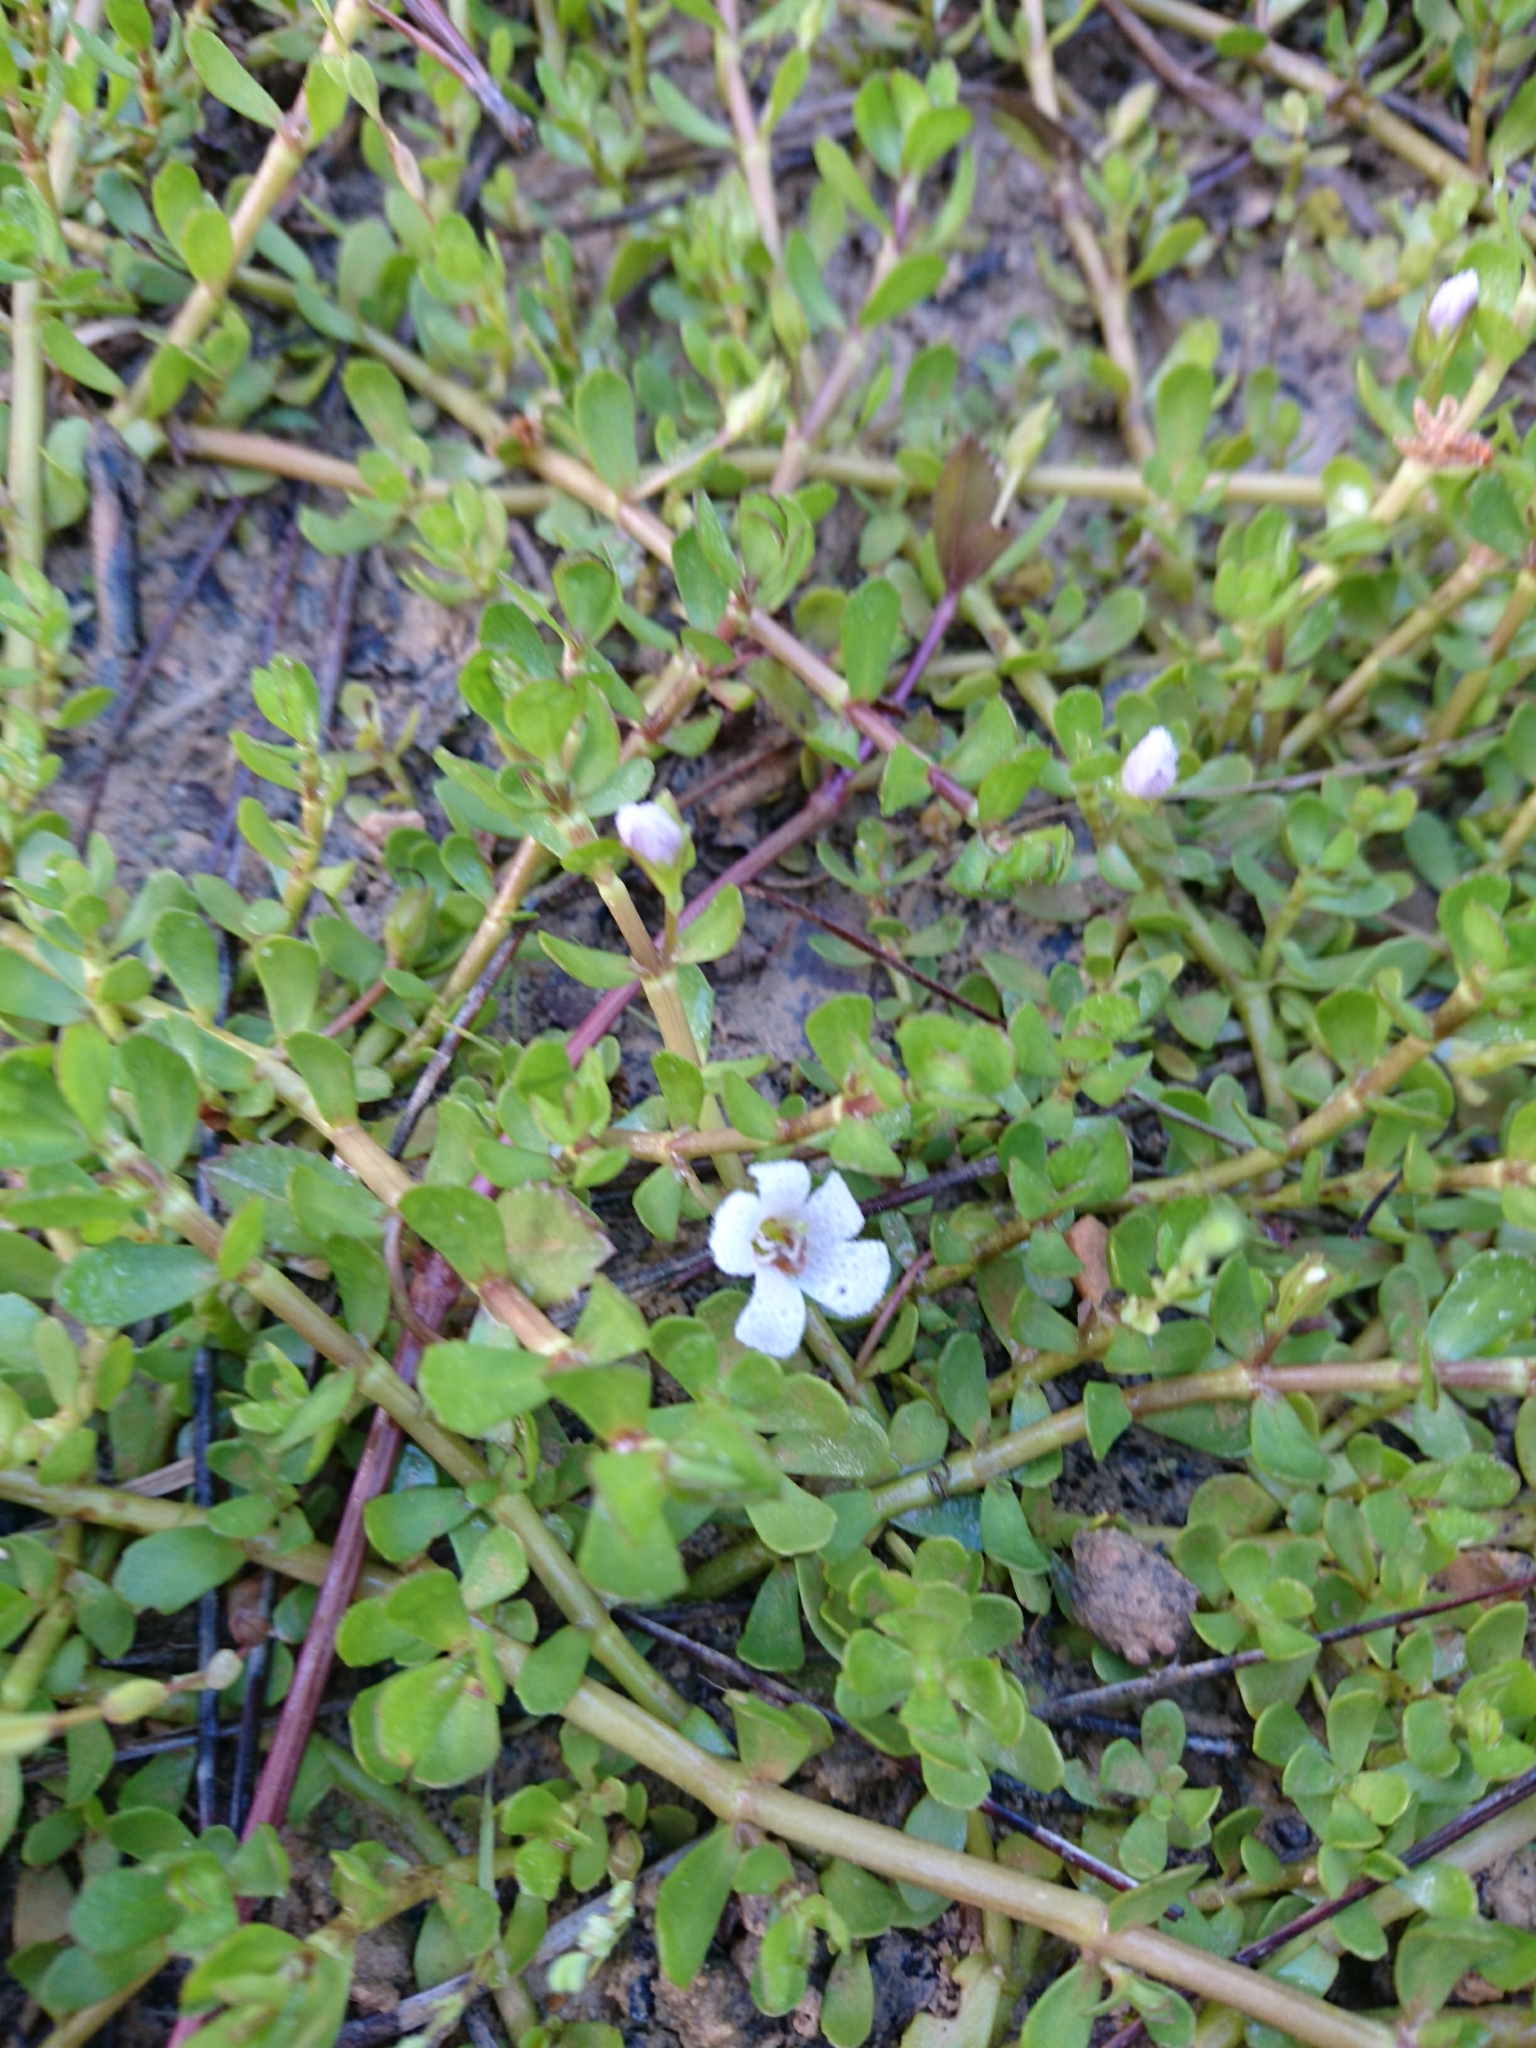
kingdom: Plantae
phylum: Tracheophyta
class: Magnoliopsida
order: Lamiales
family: Plantaginaceae
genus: Bacopa
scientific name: Bacopa monnieri
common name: Indian-pennywort
